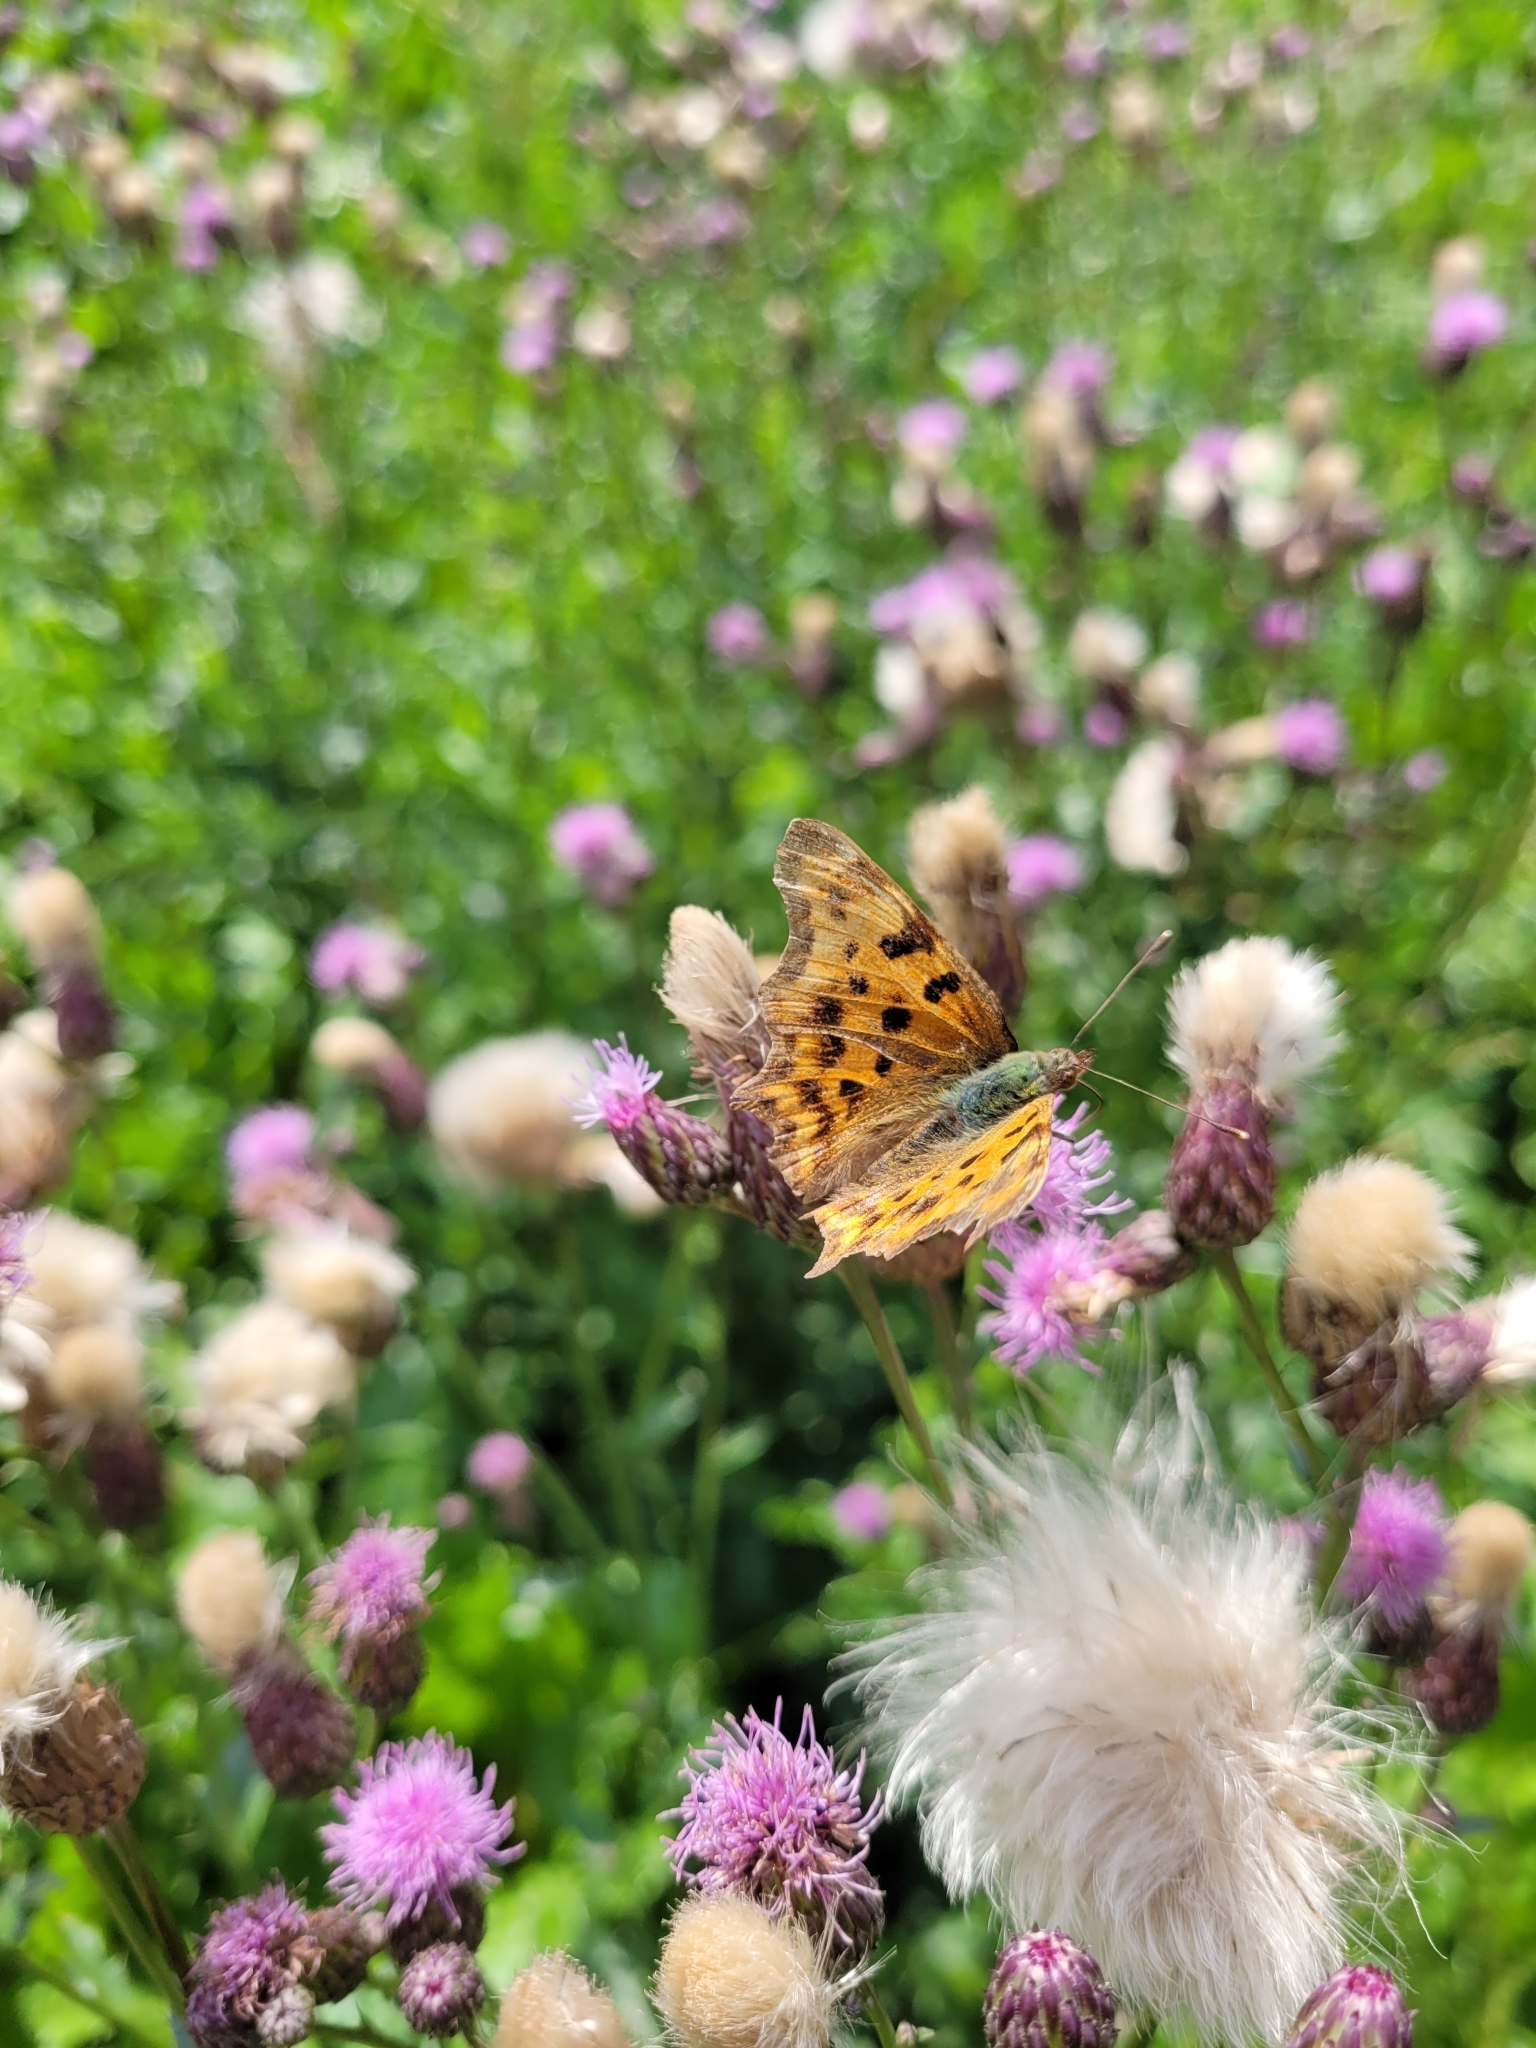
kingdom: Animalia
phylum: Arthropoda
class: Insecta
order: Lepidoptera
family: Nymphalidae
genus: Polygonia
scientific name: Polygonia c-album
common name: Comma
